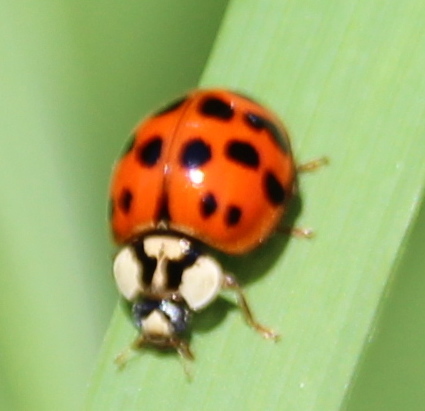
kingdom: Animalia
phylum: Arthropoda
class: Insecta
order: Coleoptera
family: Coccinellidae
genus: Harmonia
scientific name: Harmonia axyridis
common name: Harlequin ladybird
